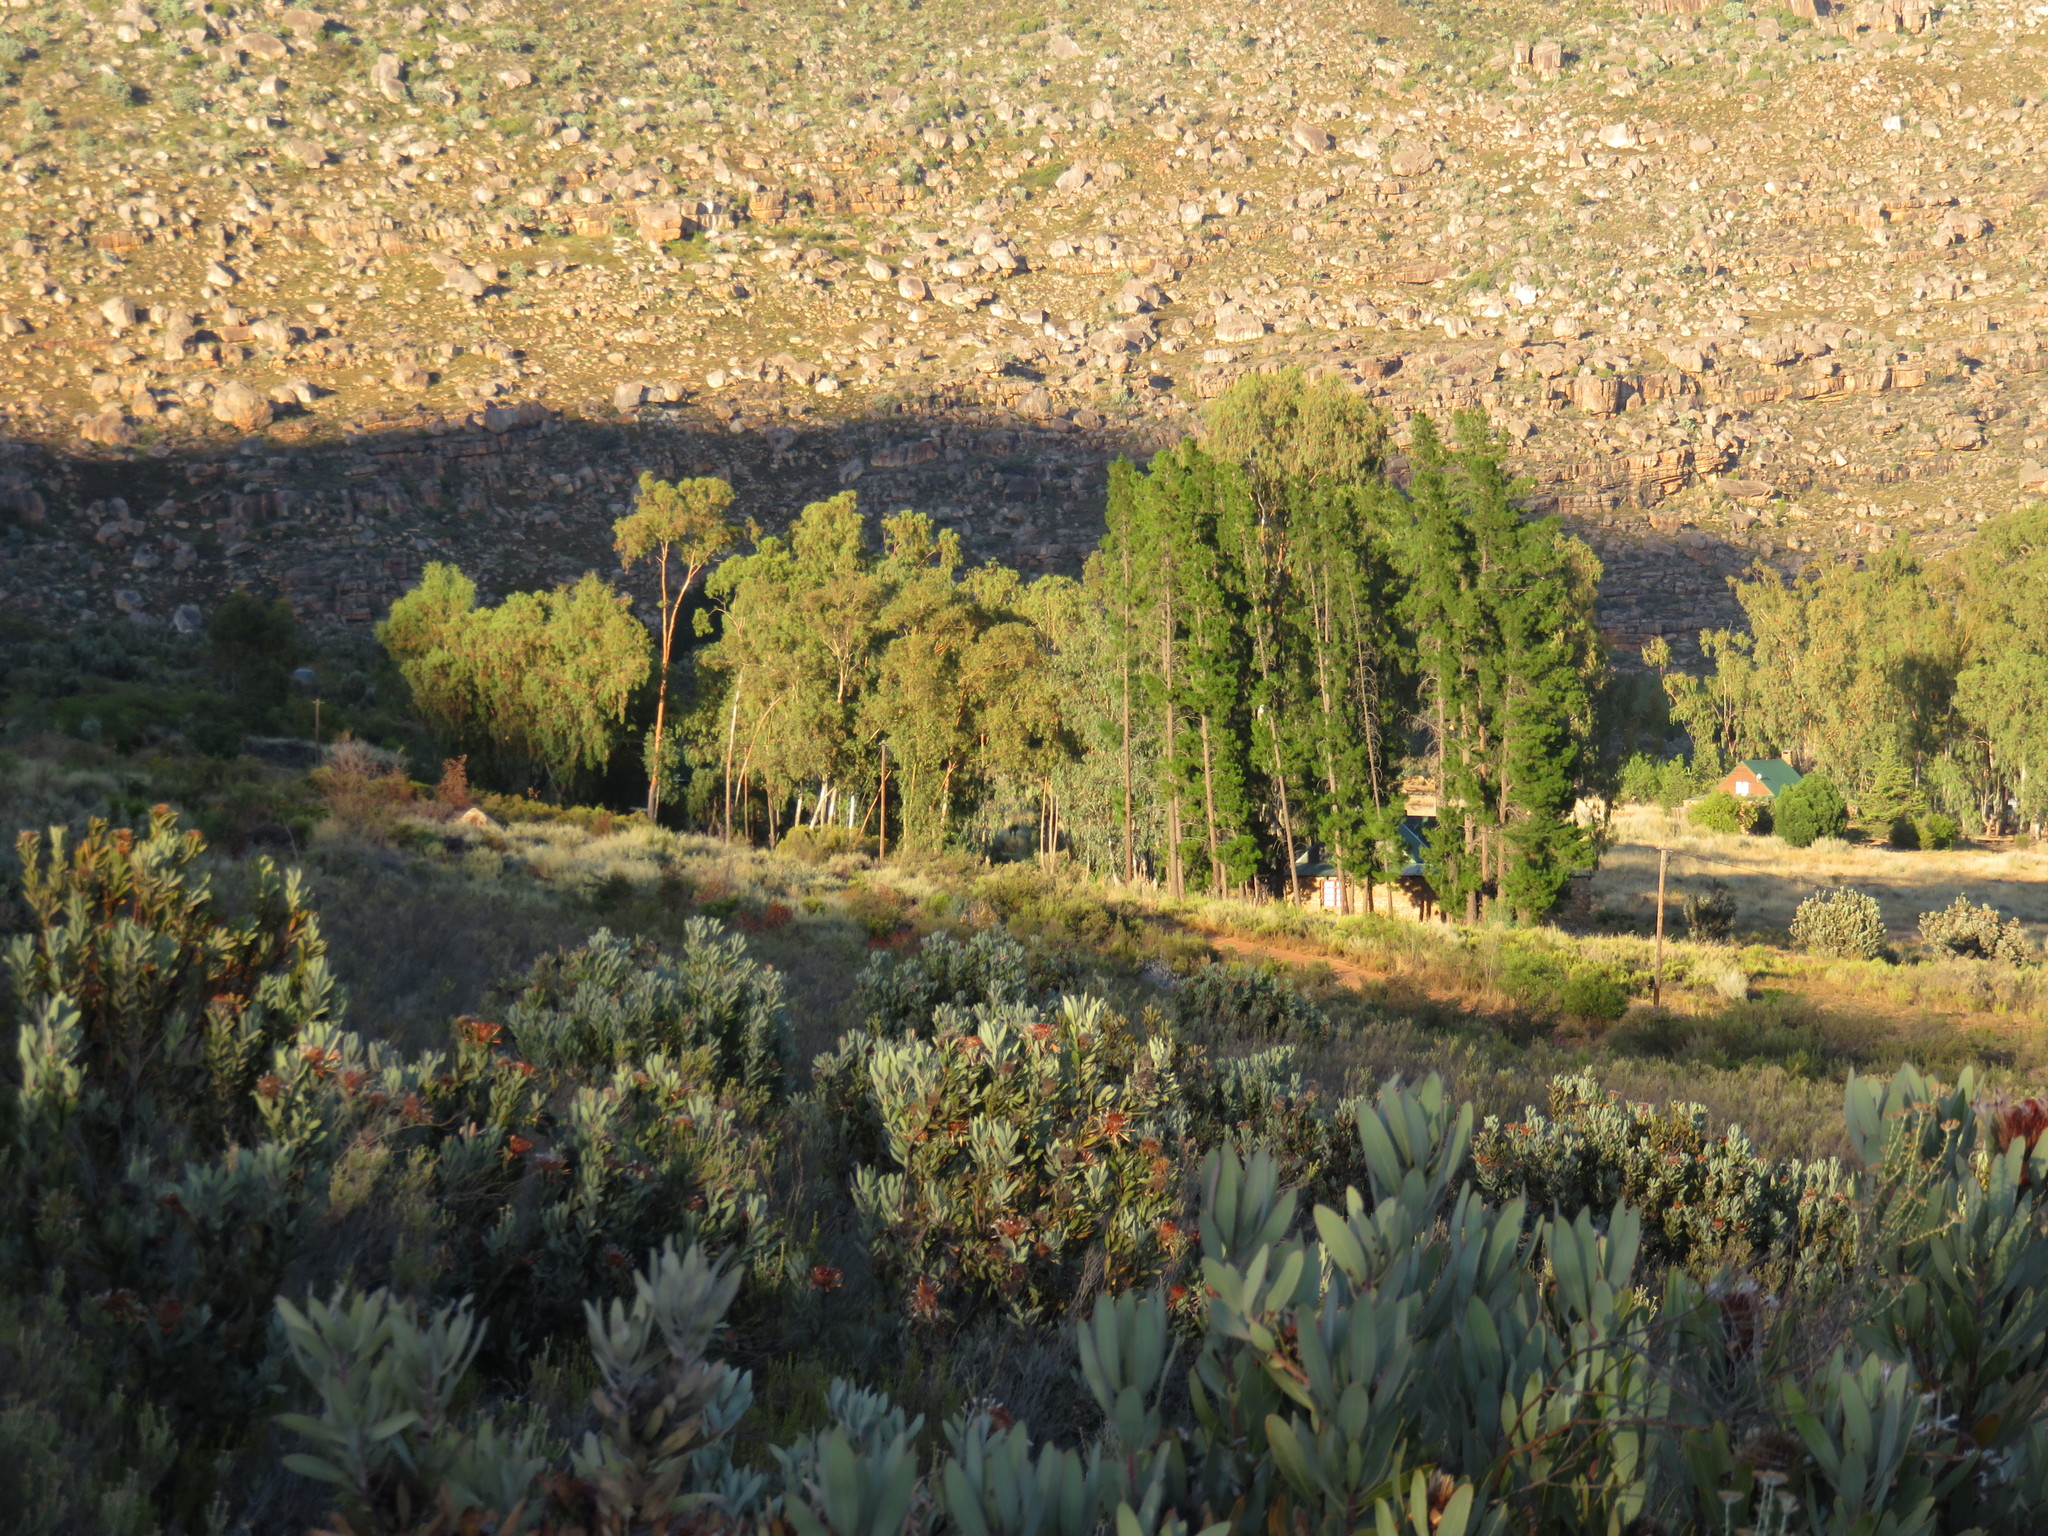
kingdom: Plantae
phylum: Tracheophyta
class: Magnoliopsida
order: Proteales
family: Proteaceae
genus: Protea
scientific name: Protea laurifolia
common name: Grey-leaf sugarbsh
